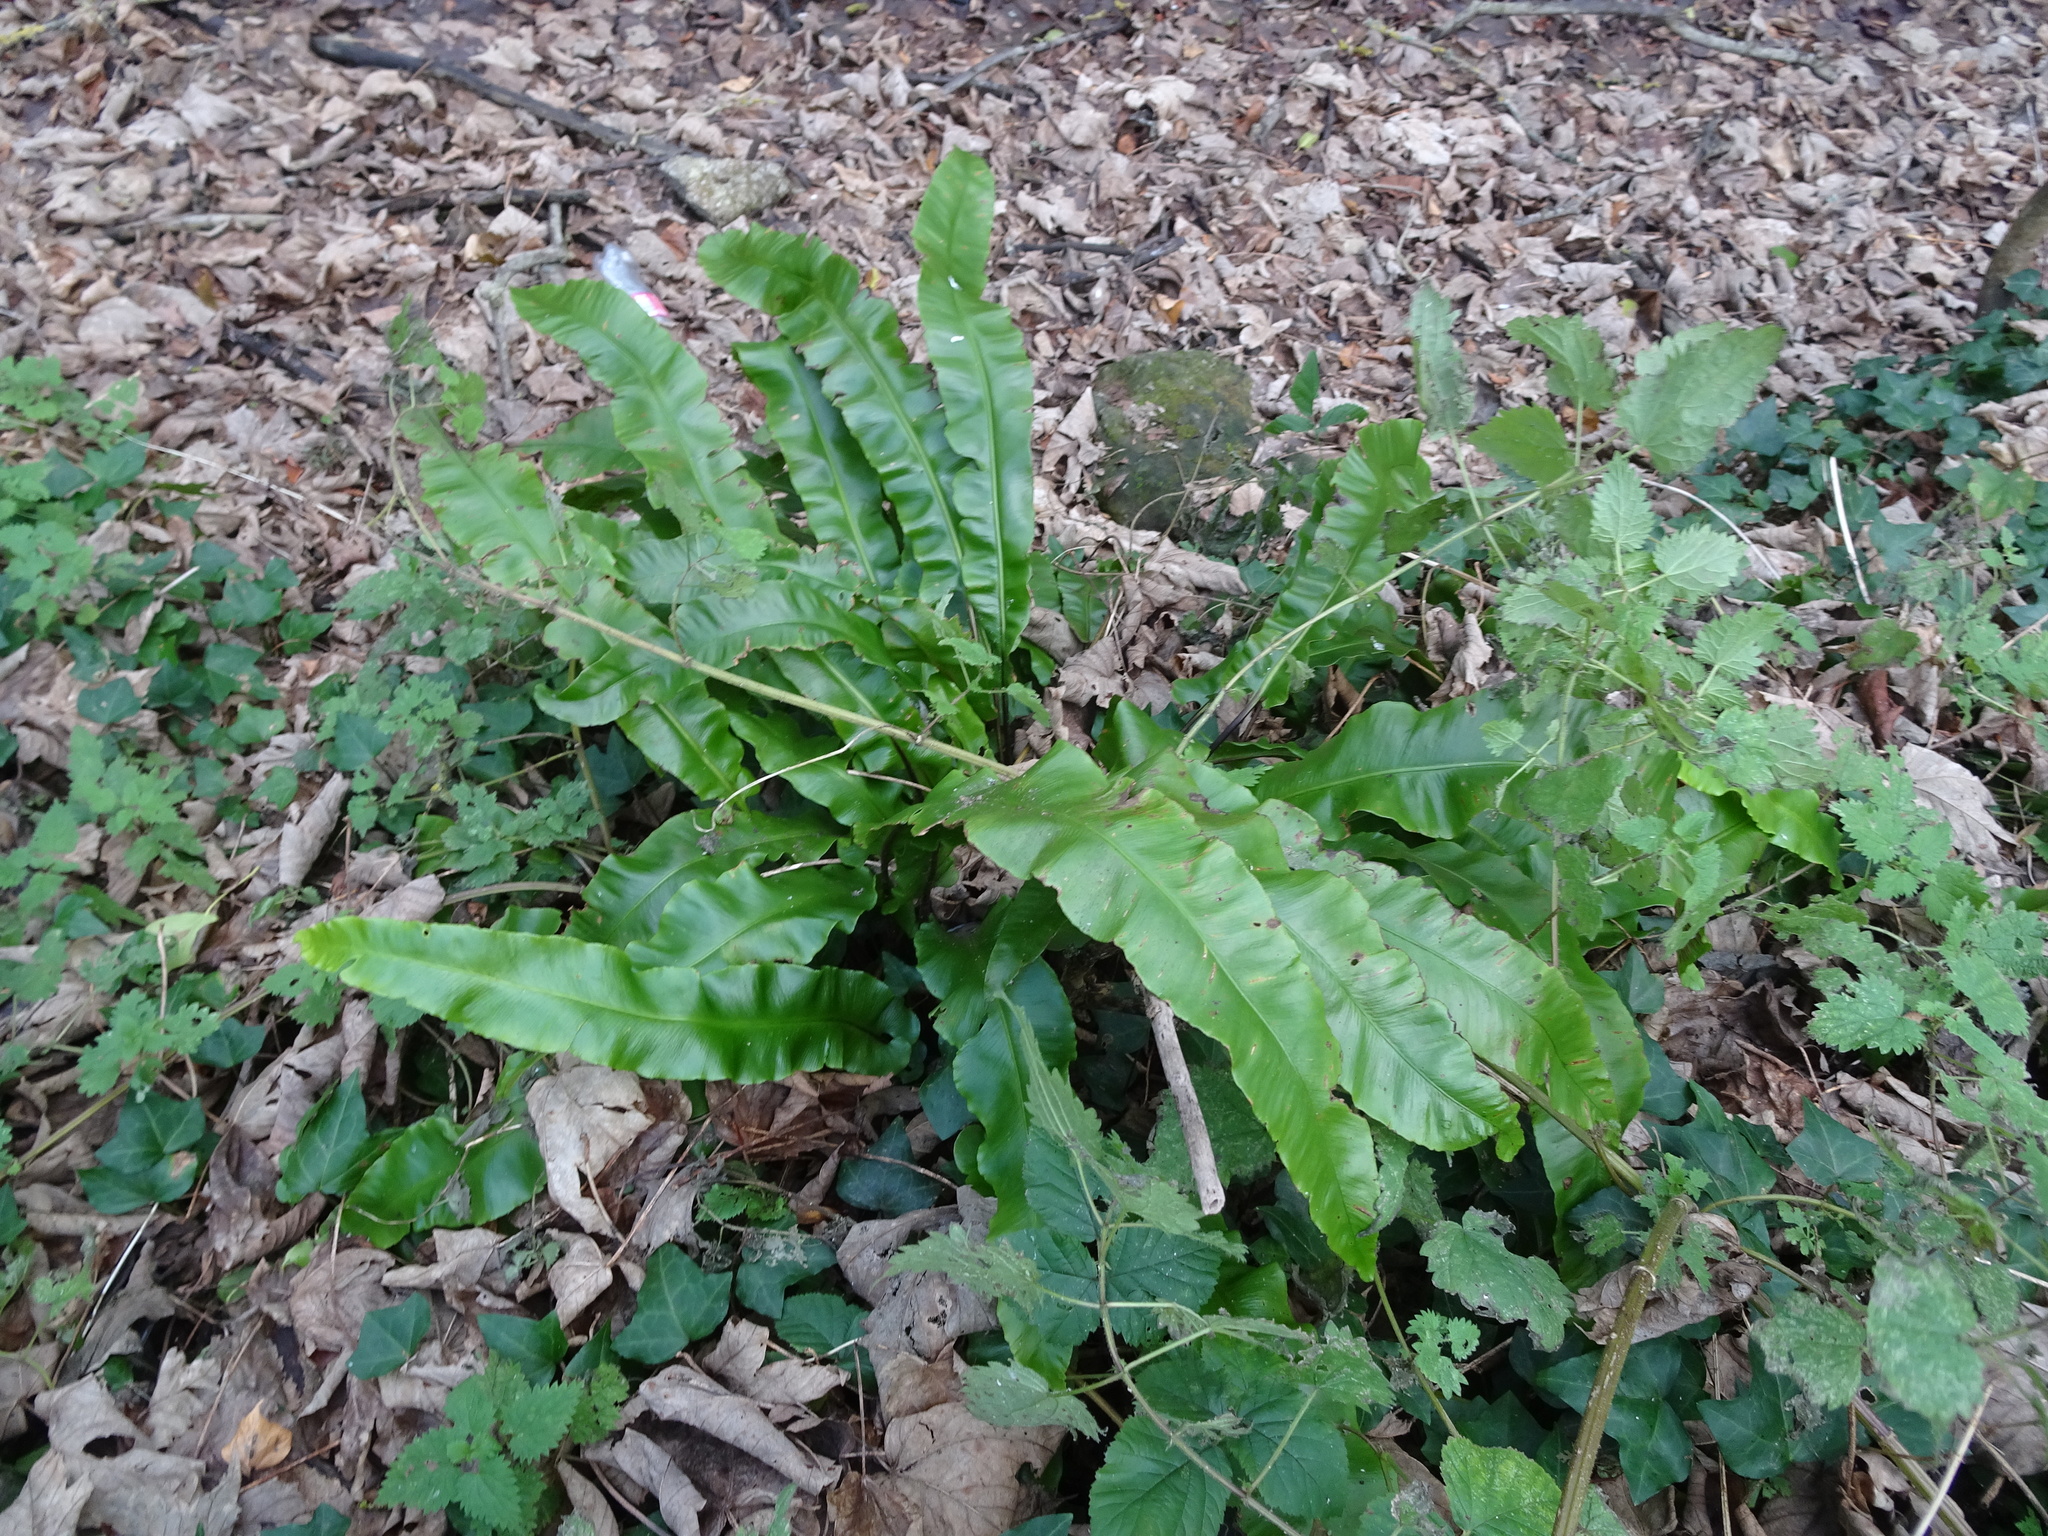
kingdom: Plantae
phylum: Tracheophyta
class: Polypodiopsida
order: Polypodiales
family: Aspleniaceae
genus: Asplenium
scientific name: Asplenium scolopendrium
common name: Hart's-tongue fern
